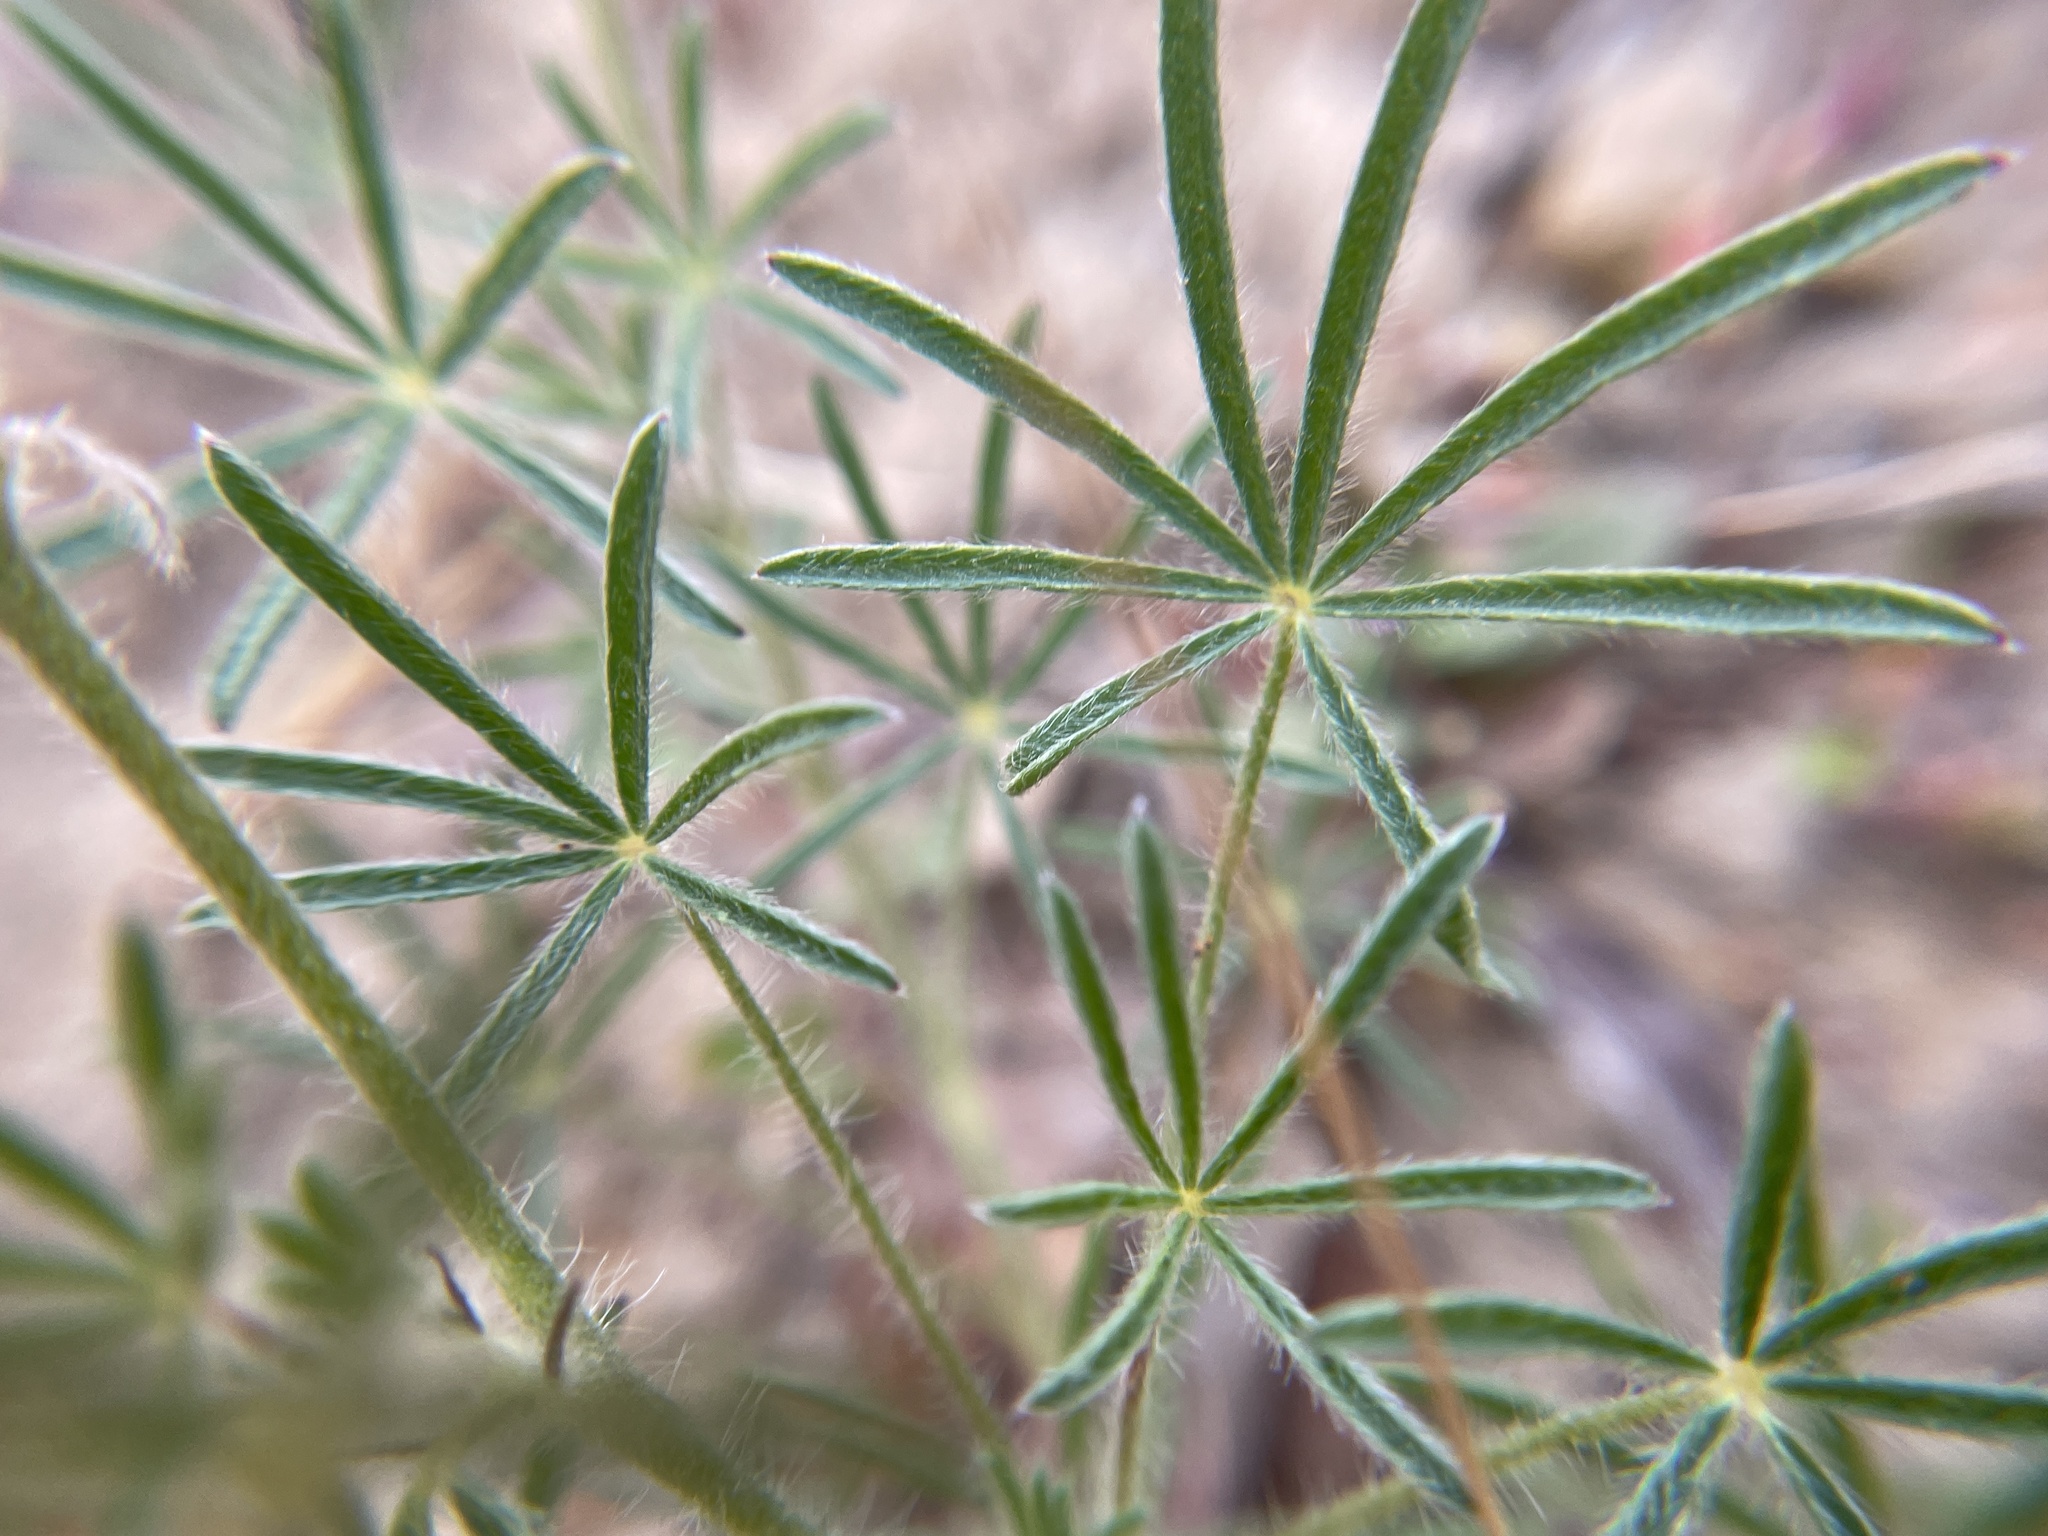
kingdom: Plantae
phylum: Tracheophyta
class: Magnoliopsida
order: Fabales
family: Fabaceae
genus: Lupinus
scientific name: Lupinus bicolor
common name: Miniature lupine
